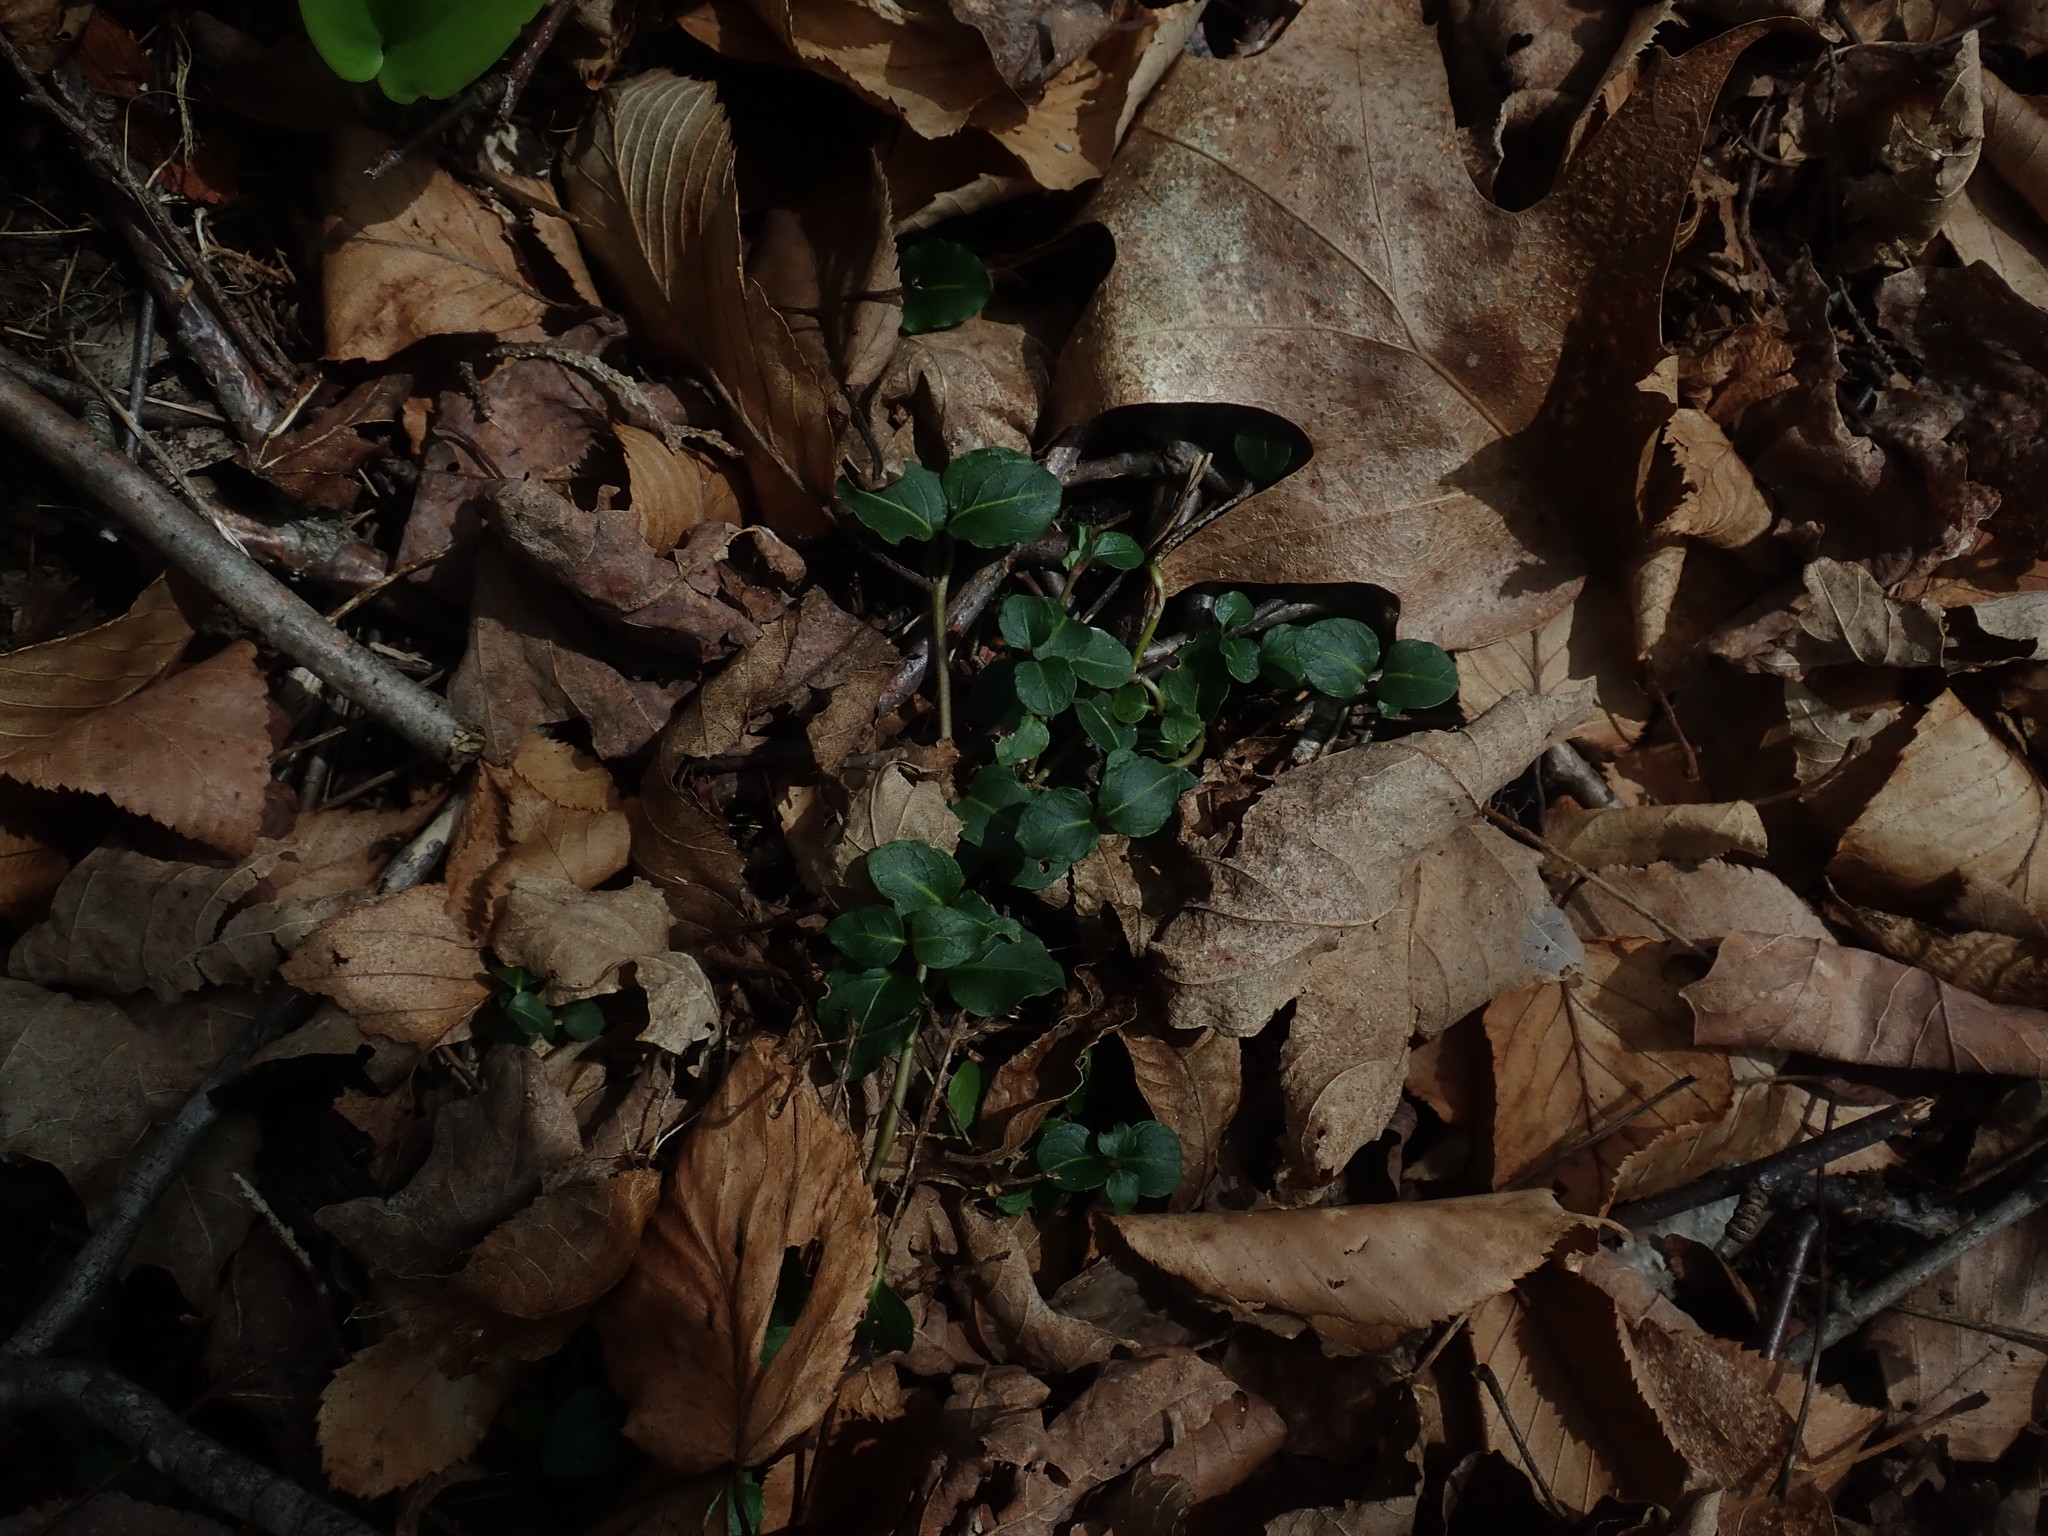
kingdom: Plantae
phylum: Tracheophyta
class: Magnoliopsida
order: Gentianales
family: Rubiaceae
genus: Mitchella
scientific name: Mitchella repens
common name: Partridge-berry
